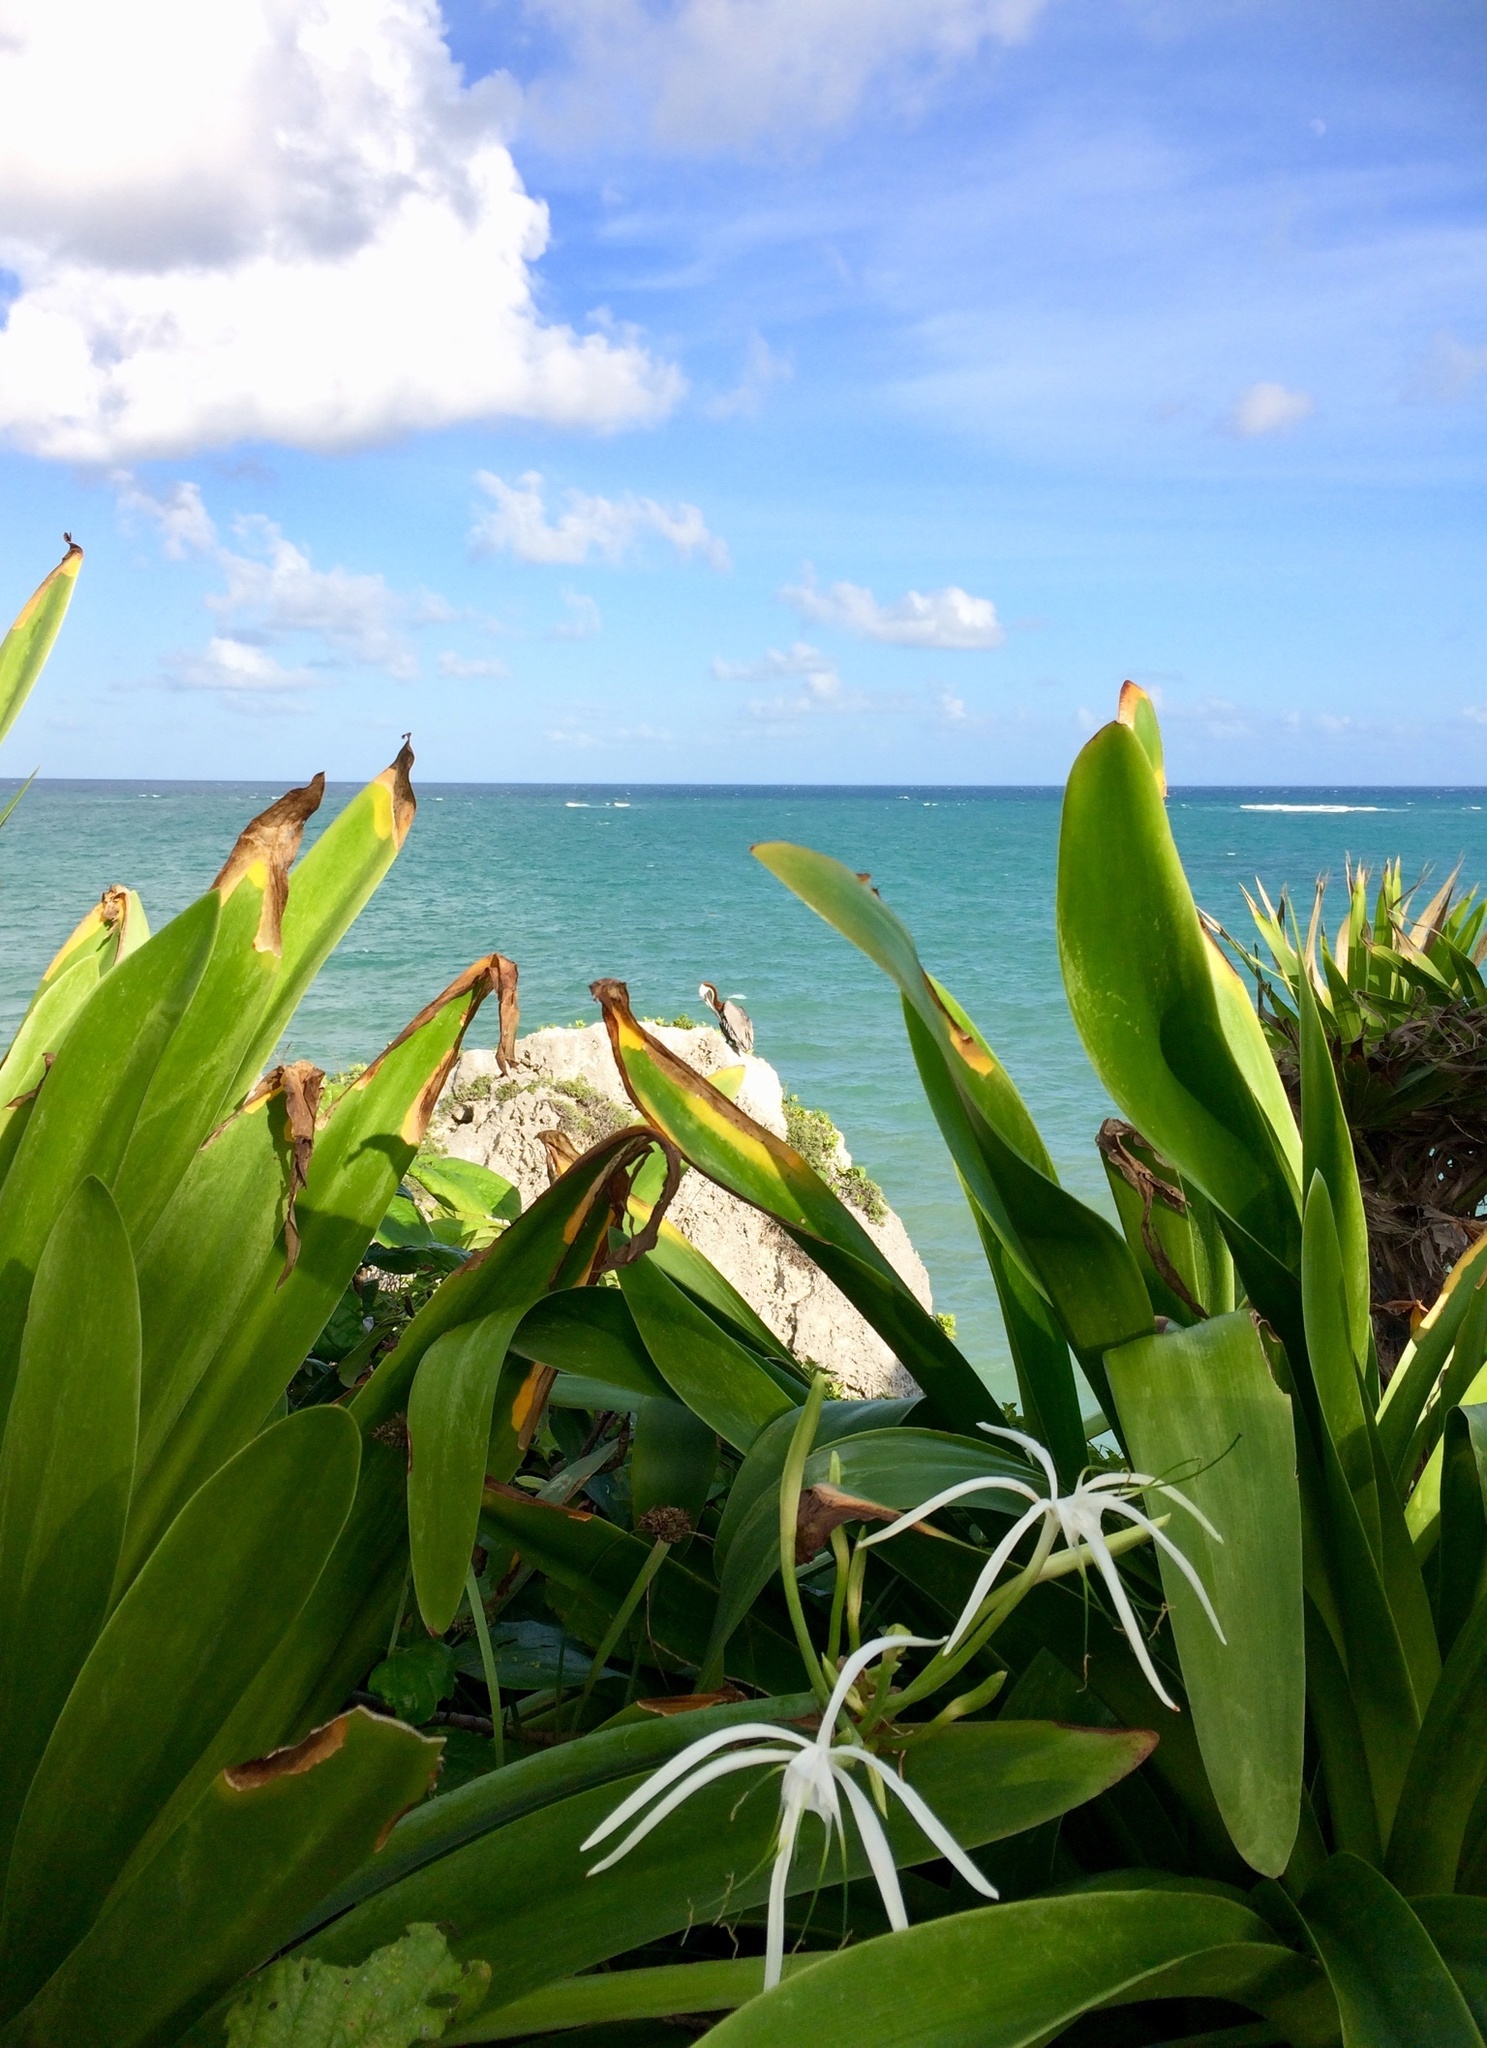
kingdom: Plantae
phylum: Tracheophyta
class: Liliopsida
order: Asparagales
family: Amaryllidaceae
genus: Hymenocallis
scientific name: Hymenocallis littoralis
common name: Beach spiderlily
